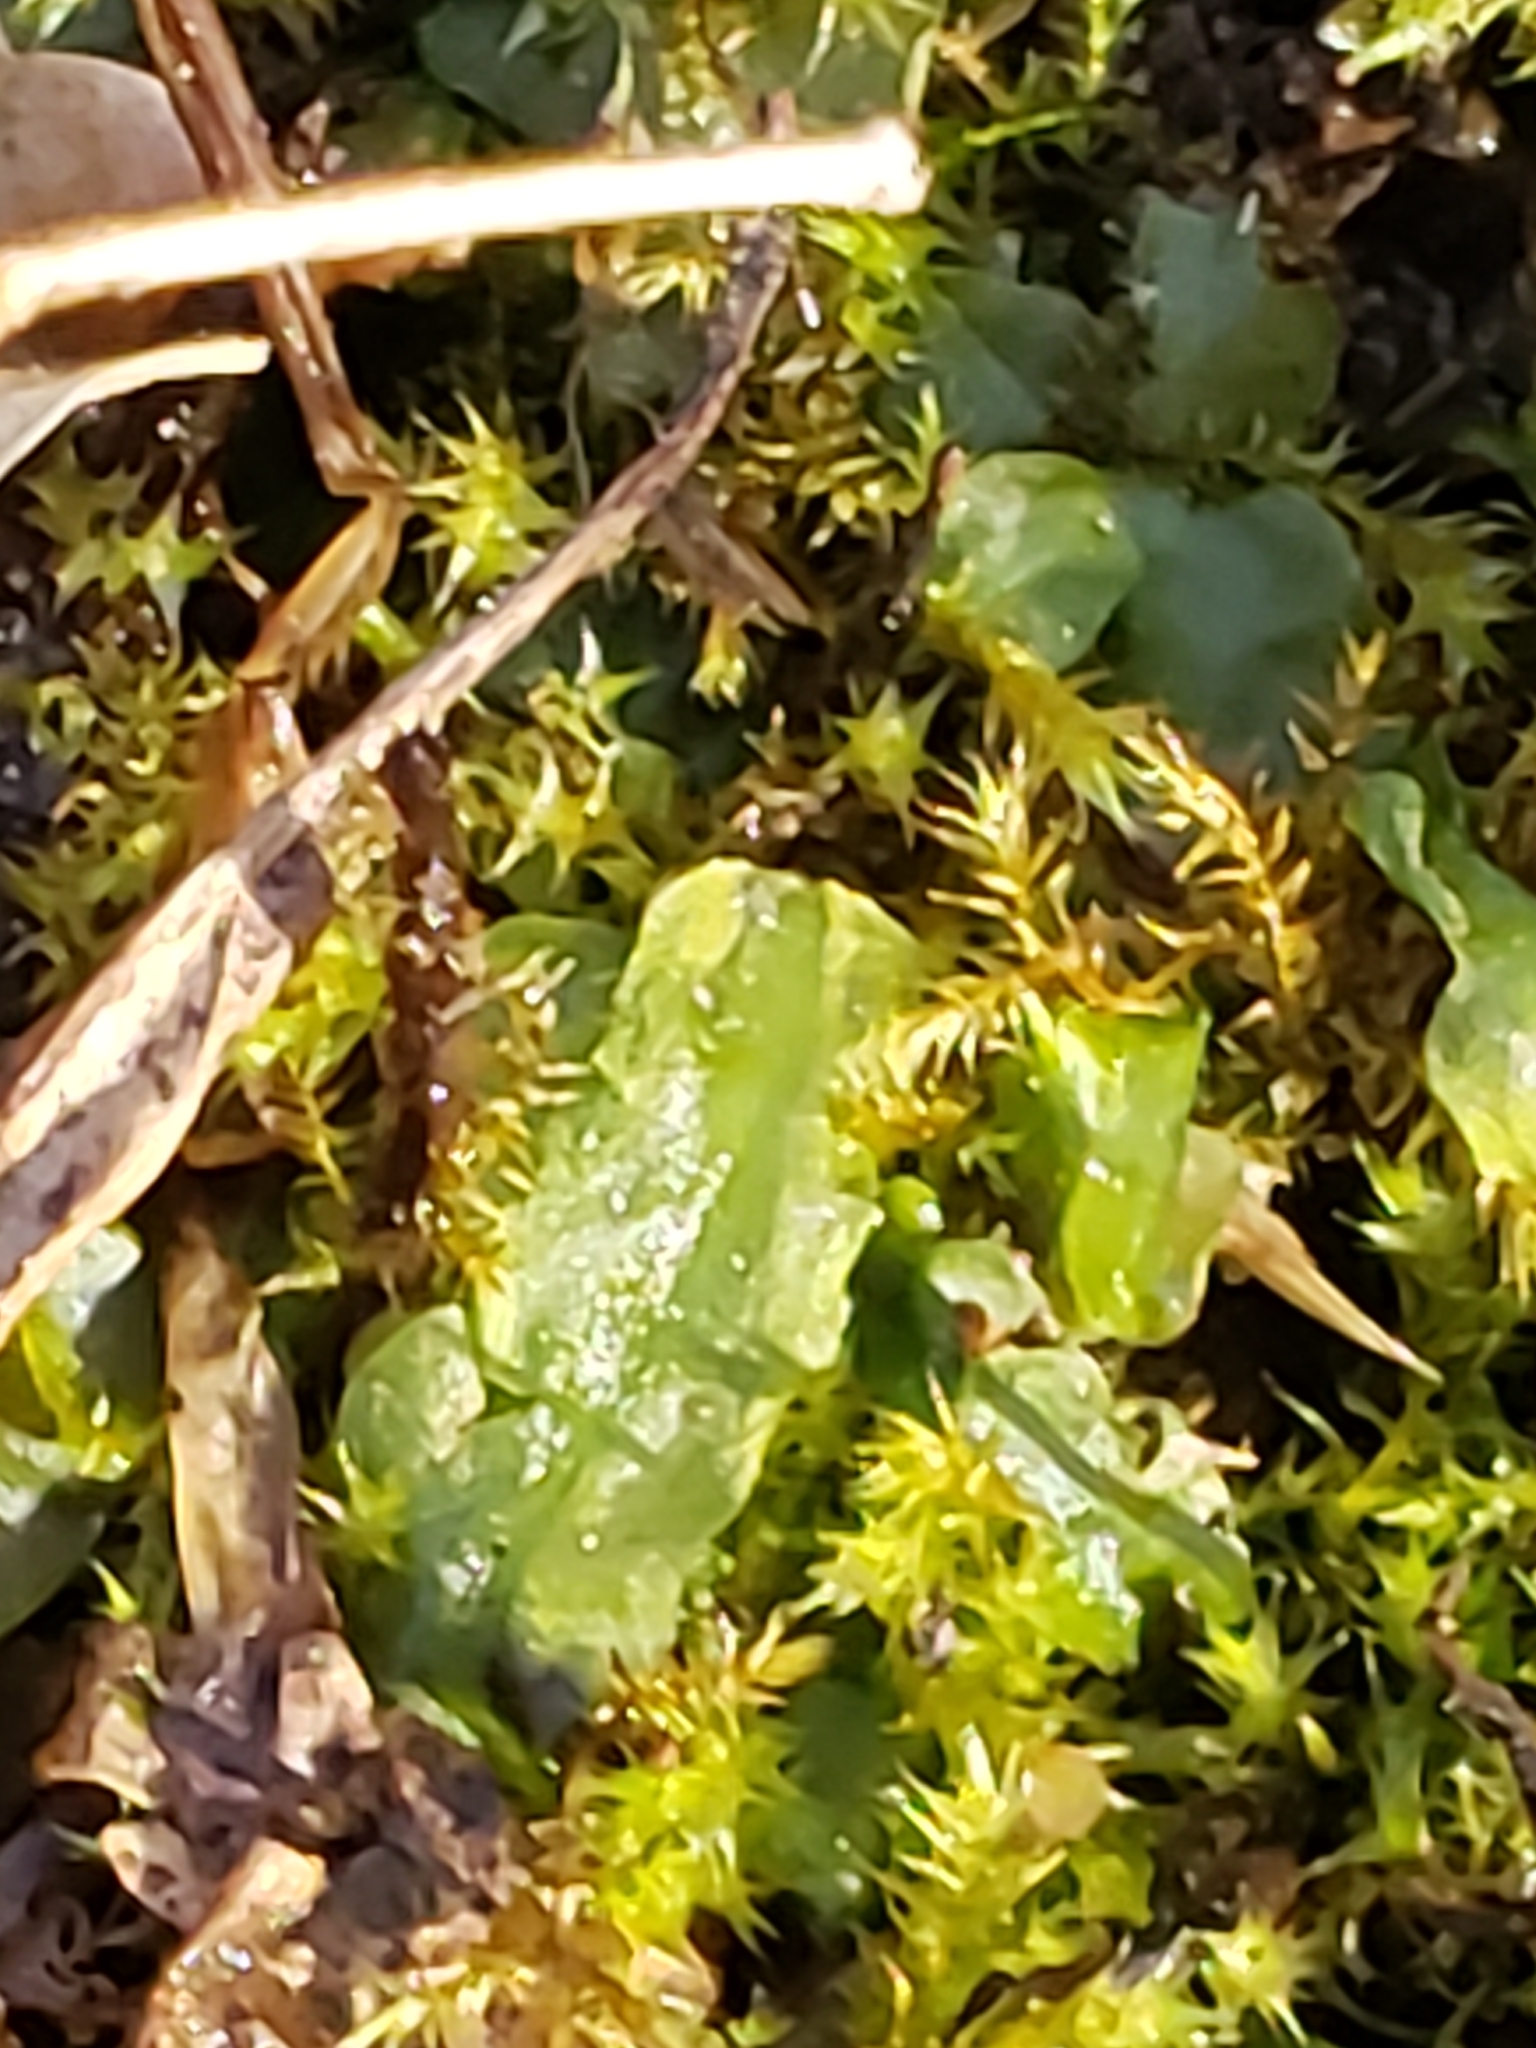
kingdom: Plantae
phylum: Marchantiophyta
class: Jungermanniopsida
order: Pallaviciniales
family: Pallaviciniaceae
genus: Pallavicinia
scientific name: Pallavicinia lyellii
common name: Veilwort
